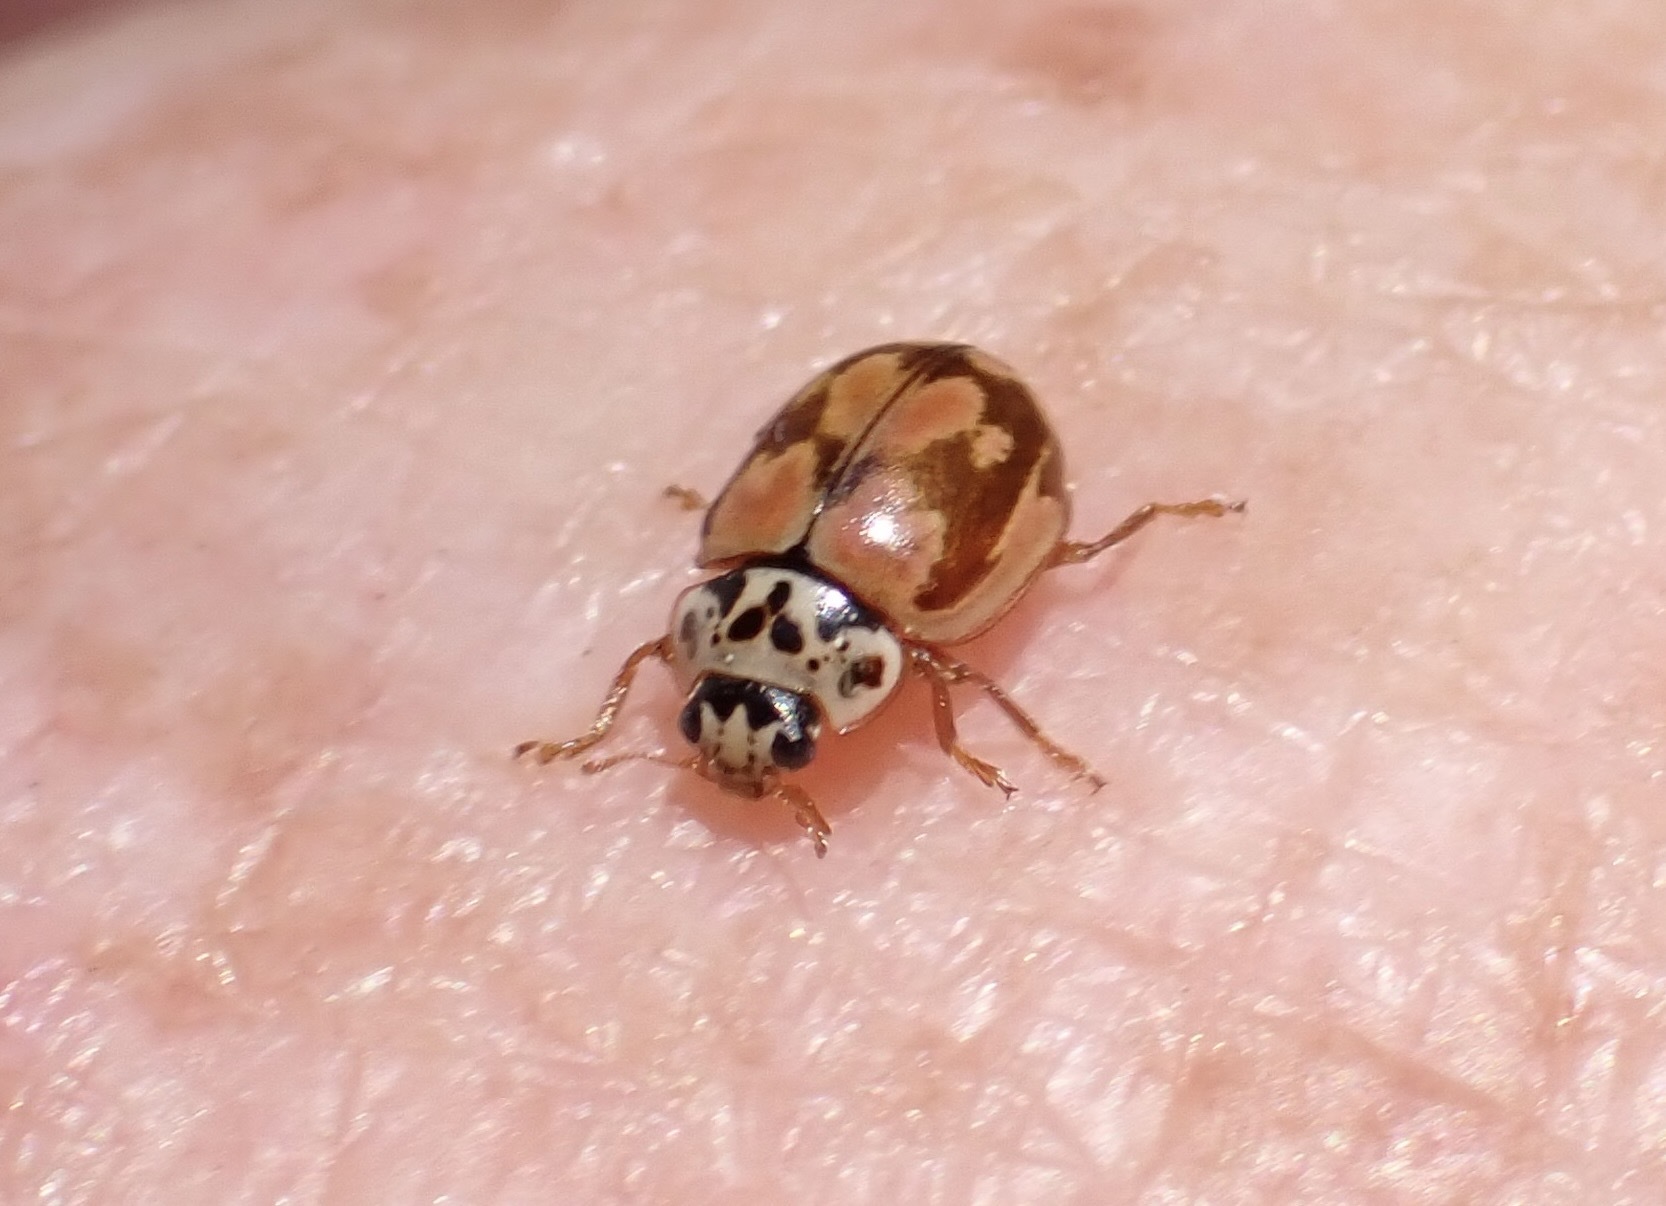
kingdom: Animalia
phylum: Arthropoda
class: Insecta
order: Coleoptera
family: Coccinellidae
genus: Mulsantina
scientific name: Mulsantina picta
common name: Painted ladybird
